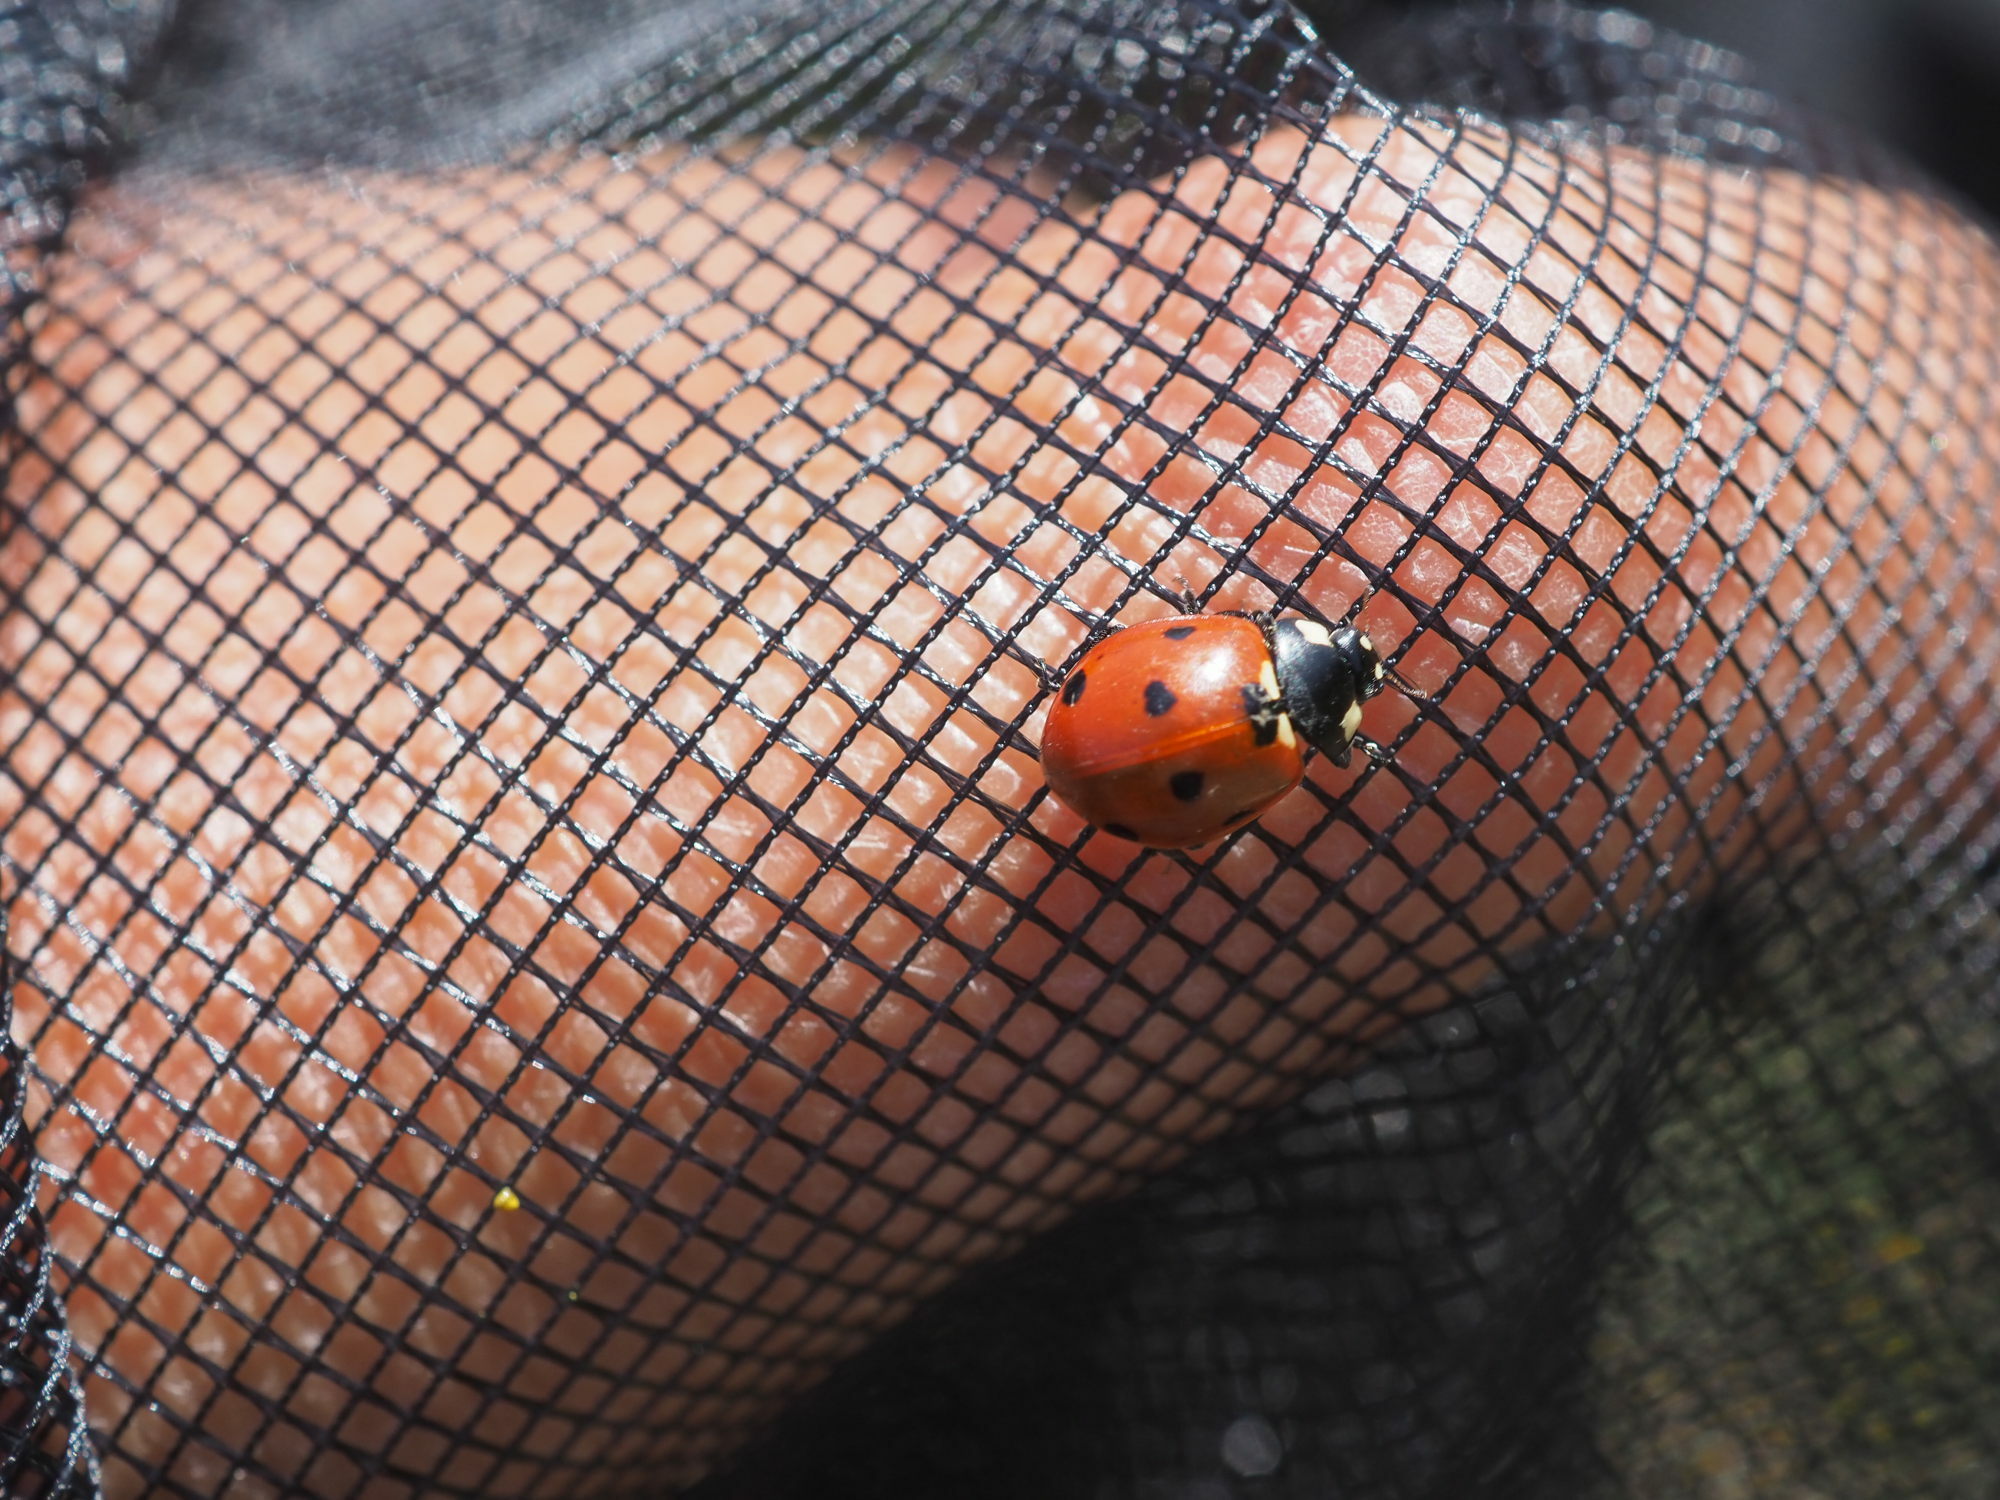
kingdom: Animalia
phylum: Arthropoda
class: Insecta
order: Coleoptera
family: Coccinellidae
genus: Coccinella
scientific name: Coccinella septempunctata
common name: Sevenspotted lady beetle
